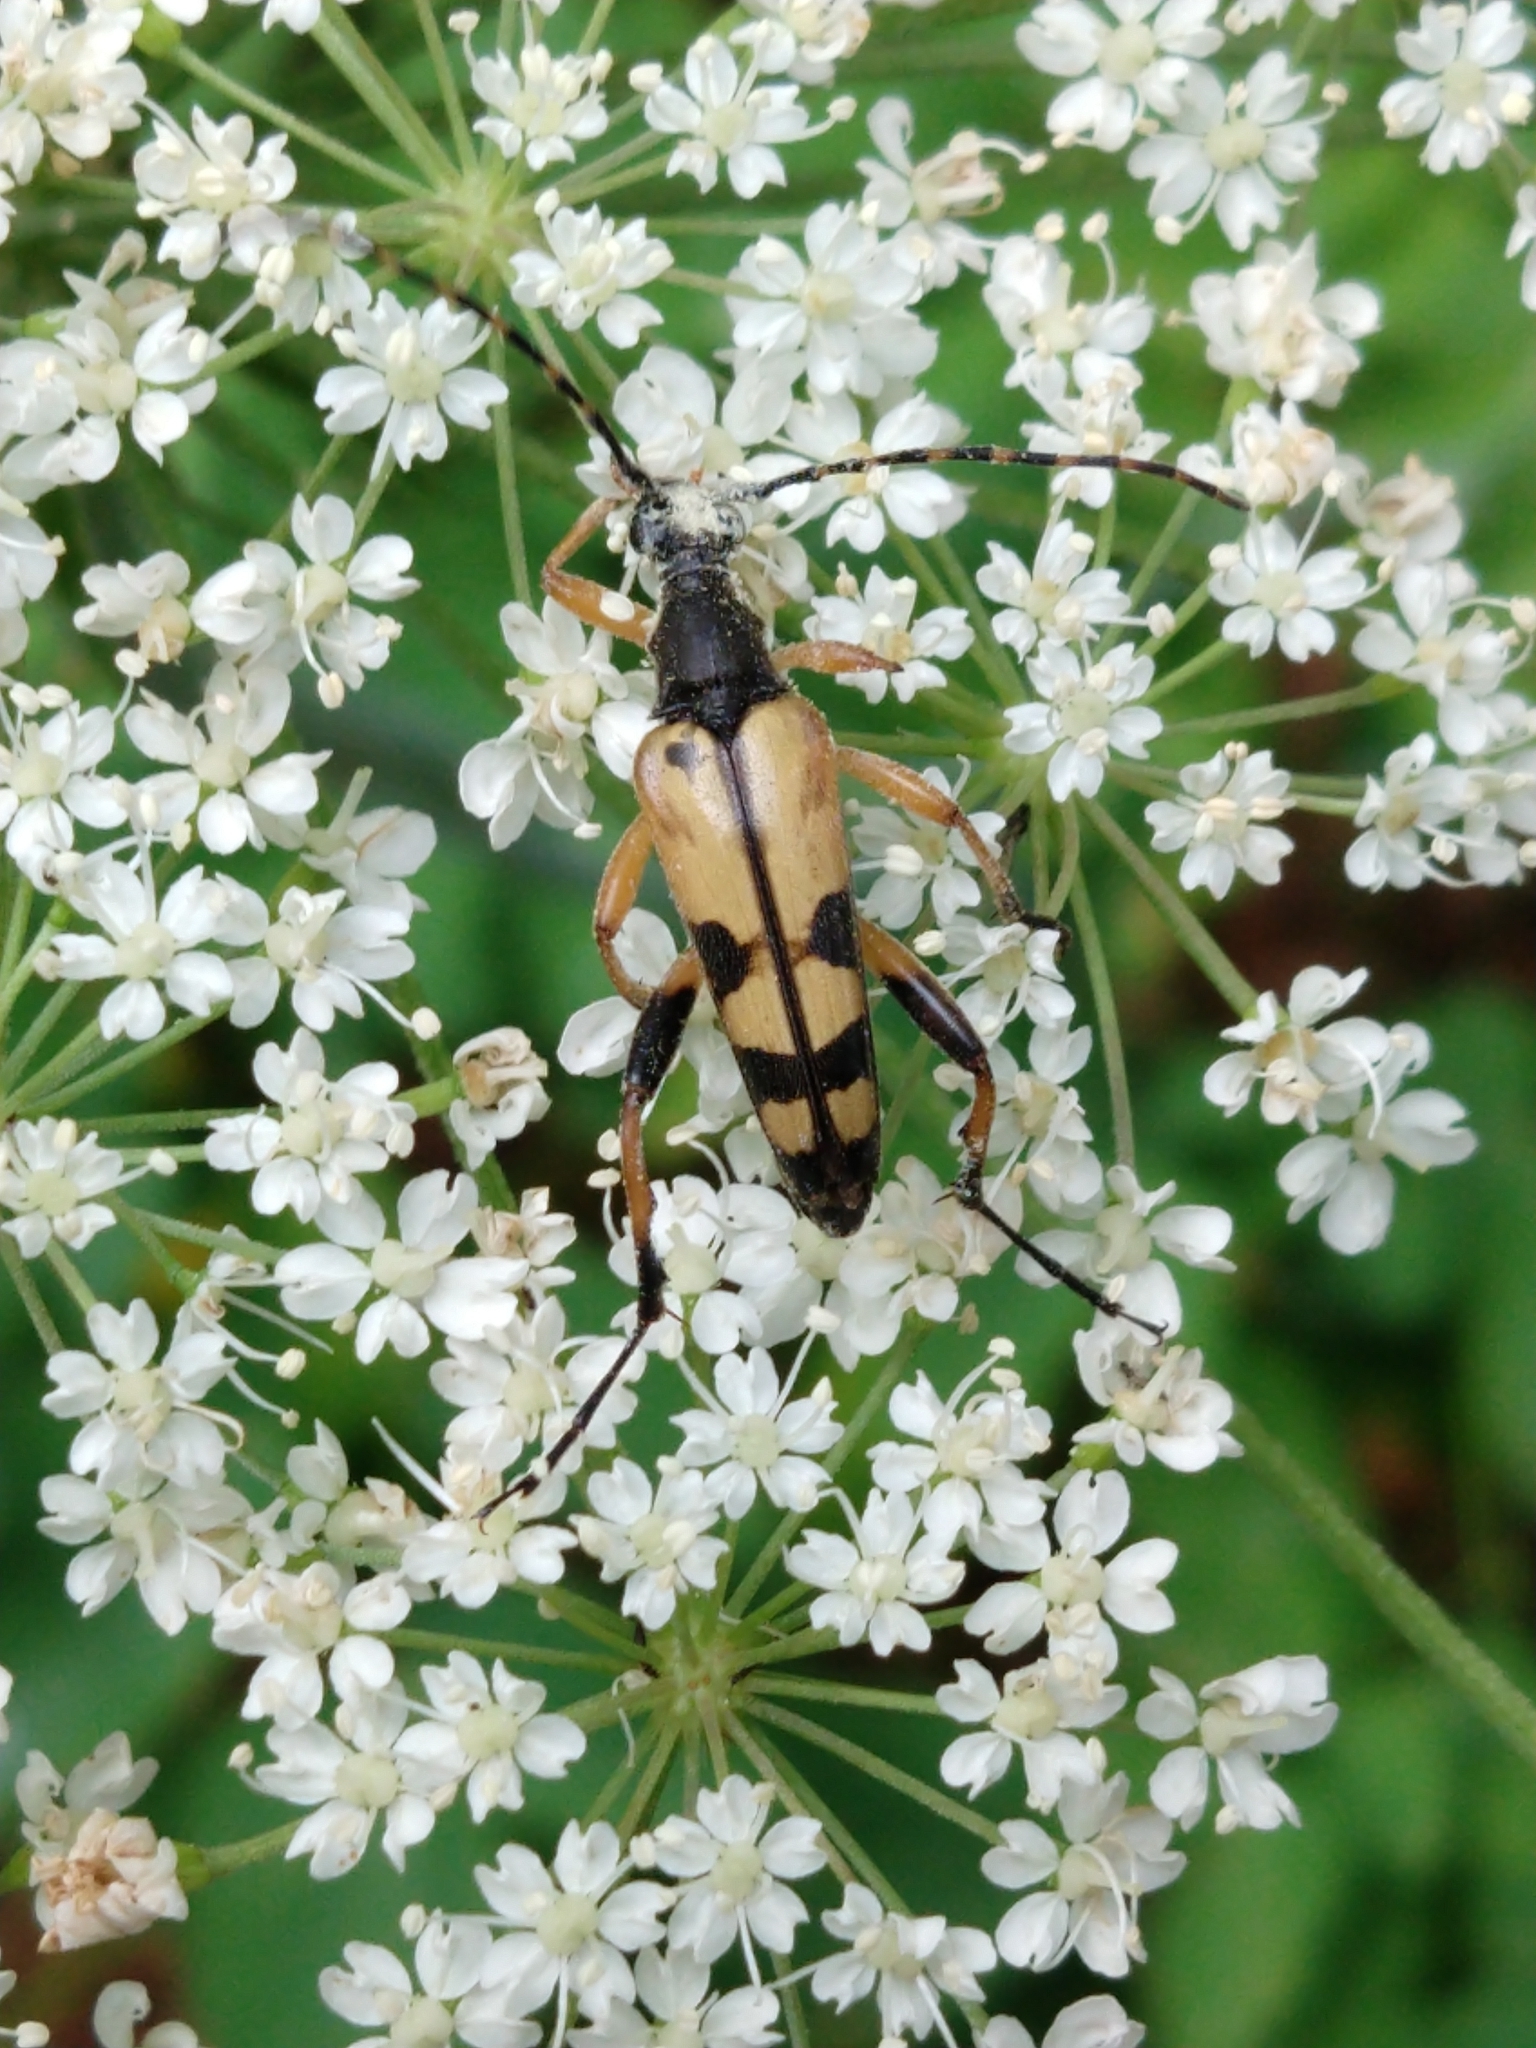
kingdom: Animalia
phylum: Arthropoda
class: Insecta
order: Coleoptera
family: Cerambycidae
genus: Rutpela
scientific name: Rutpela maculata
